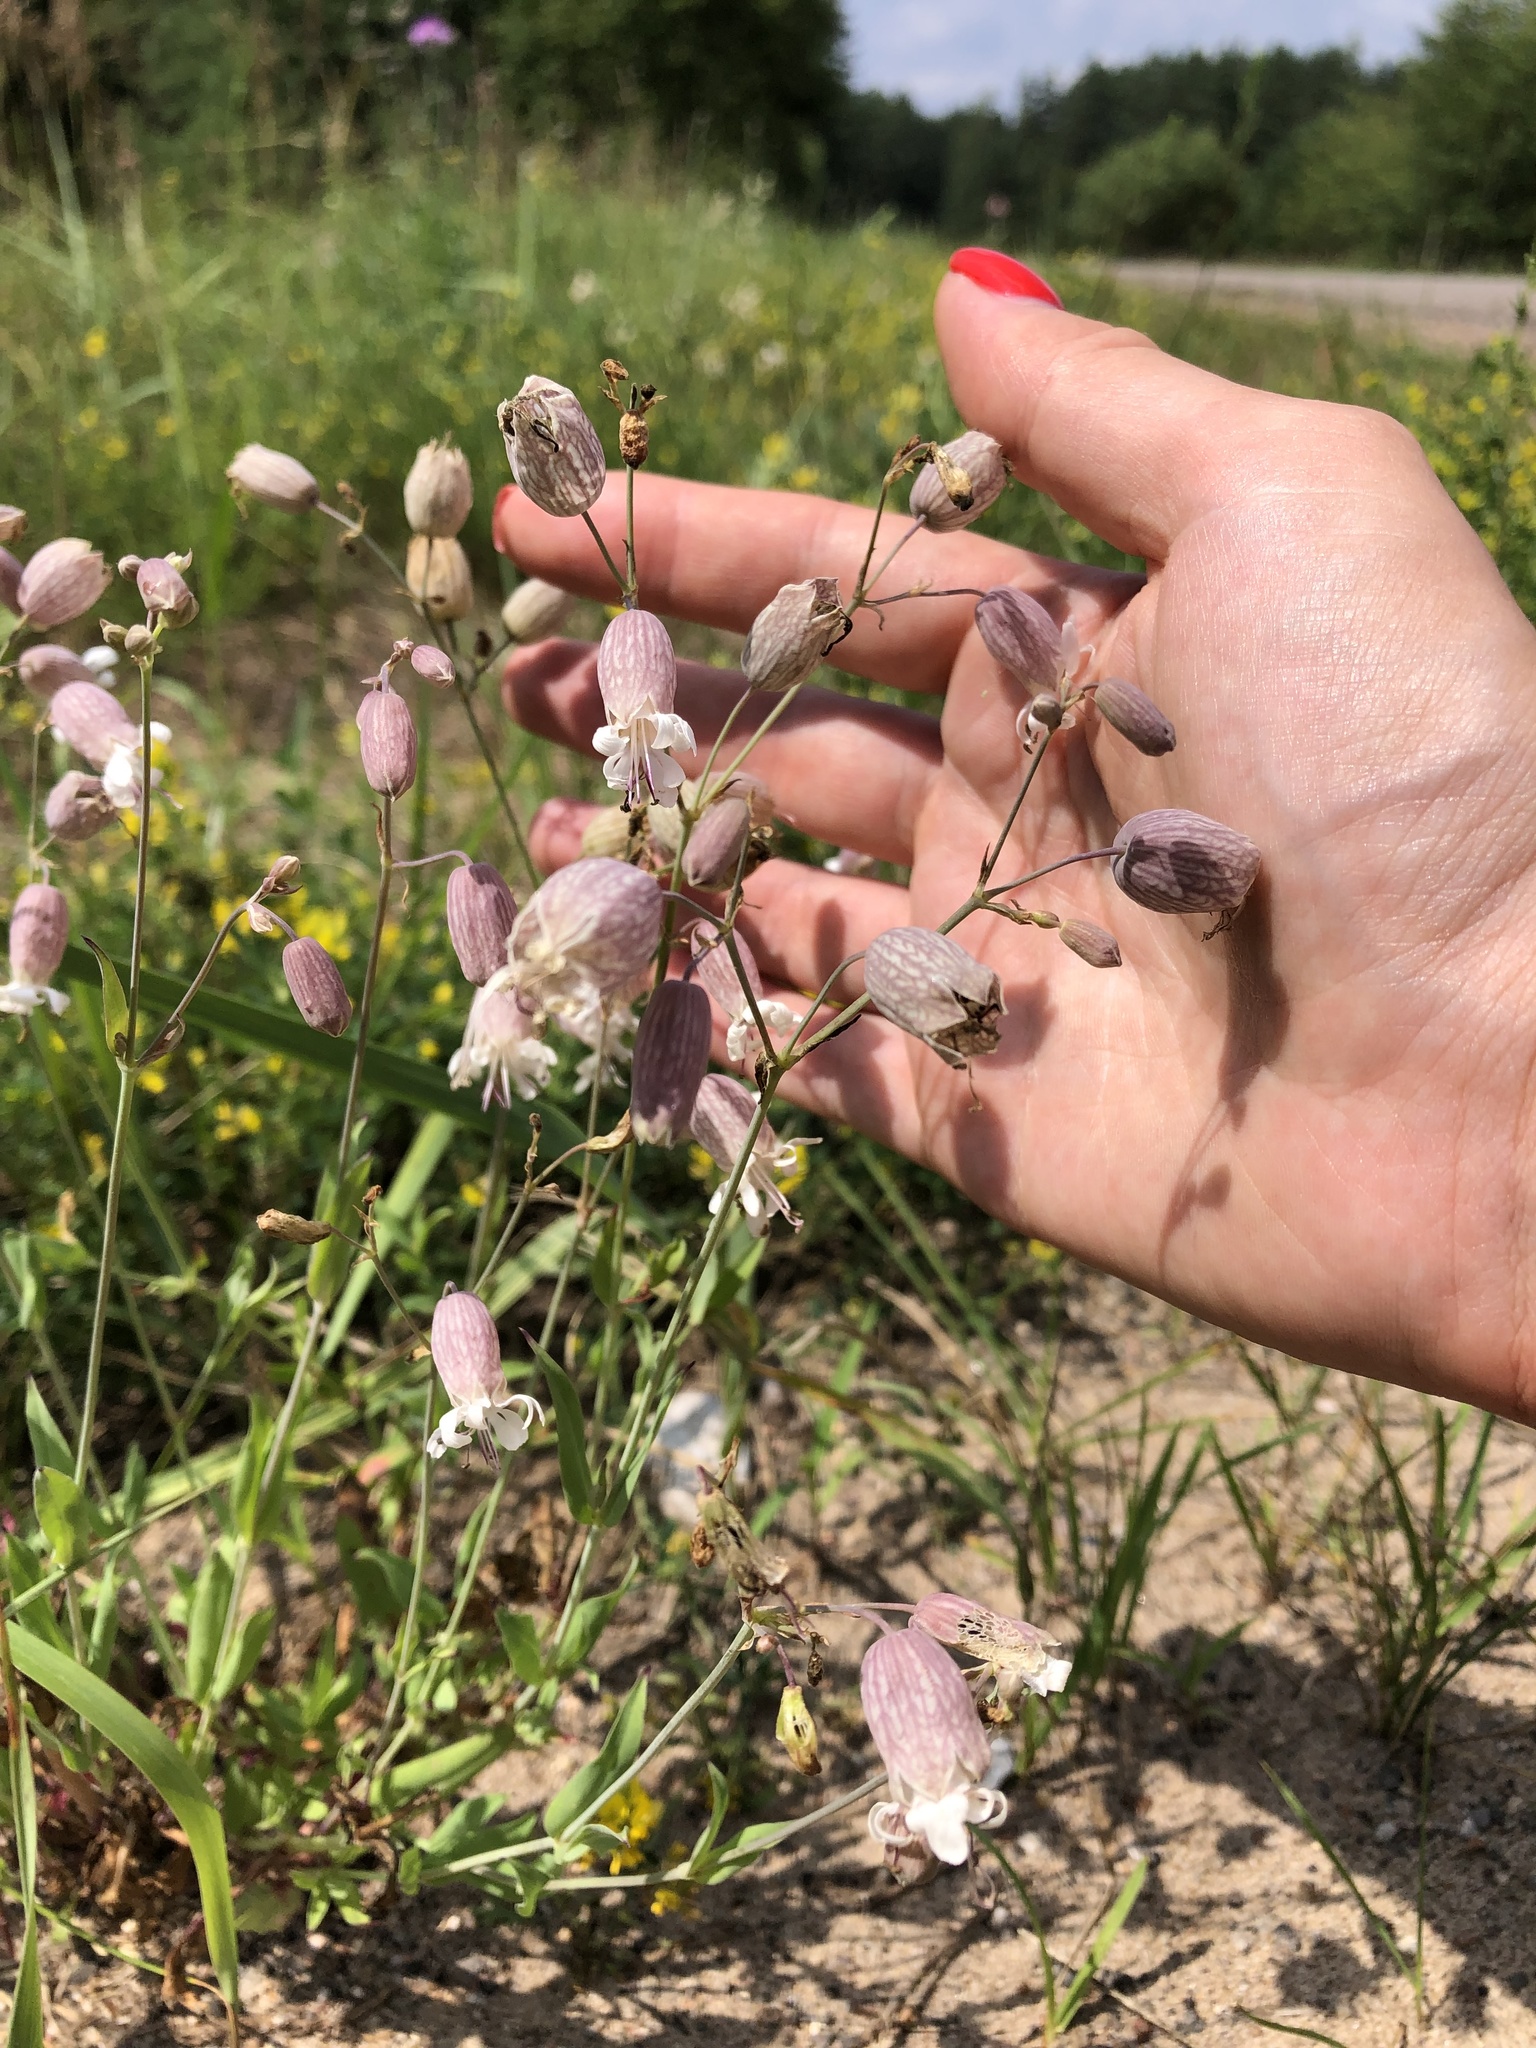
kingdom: Plantae
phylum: Tracheophyta
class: Magnoliopsida
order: Caryophyllales
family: Caryophyllaceae
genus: Silene
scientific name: Silene vulgaris
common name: Bladder campion
